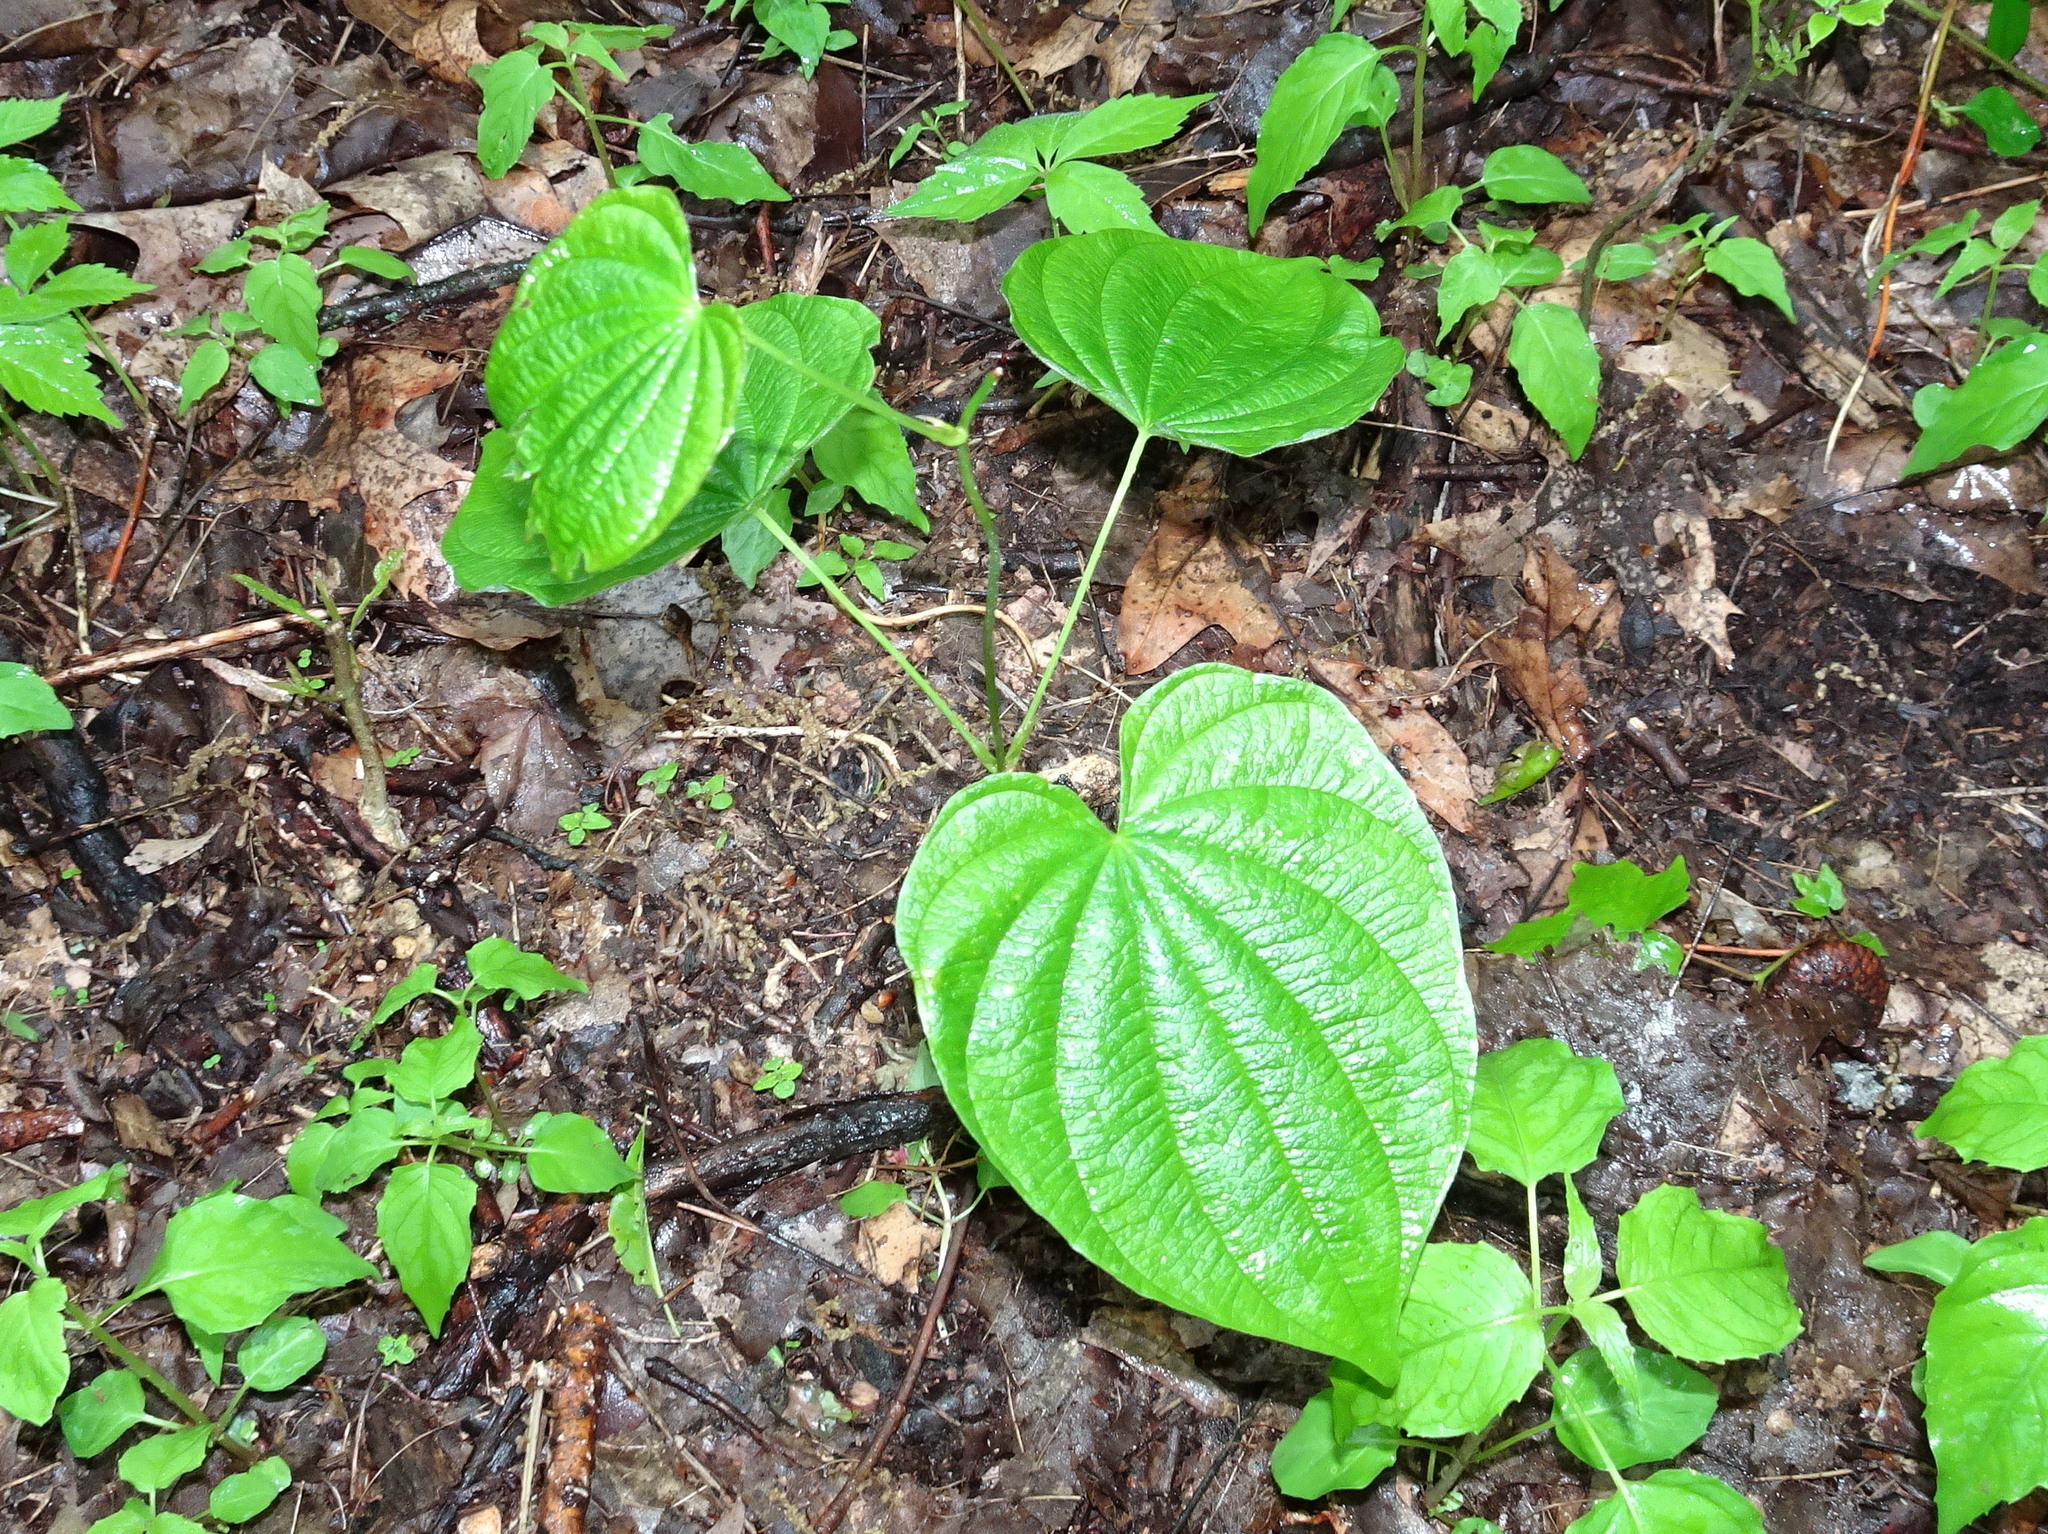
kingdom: Plantae
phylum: Tracheophyta
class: Liliopsida
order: Dioscoreales
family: Dioscoreaceae
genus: Dioscorea
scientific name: Dioscorea villosa
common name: Wild yam
